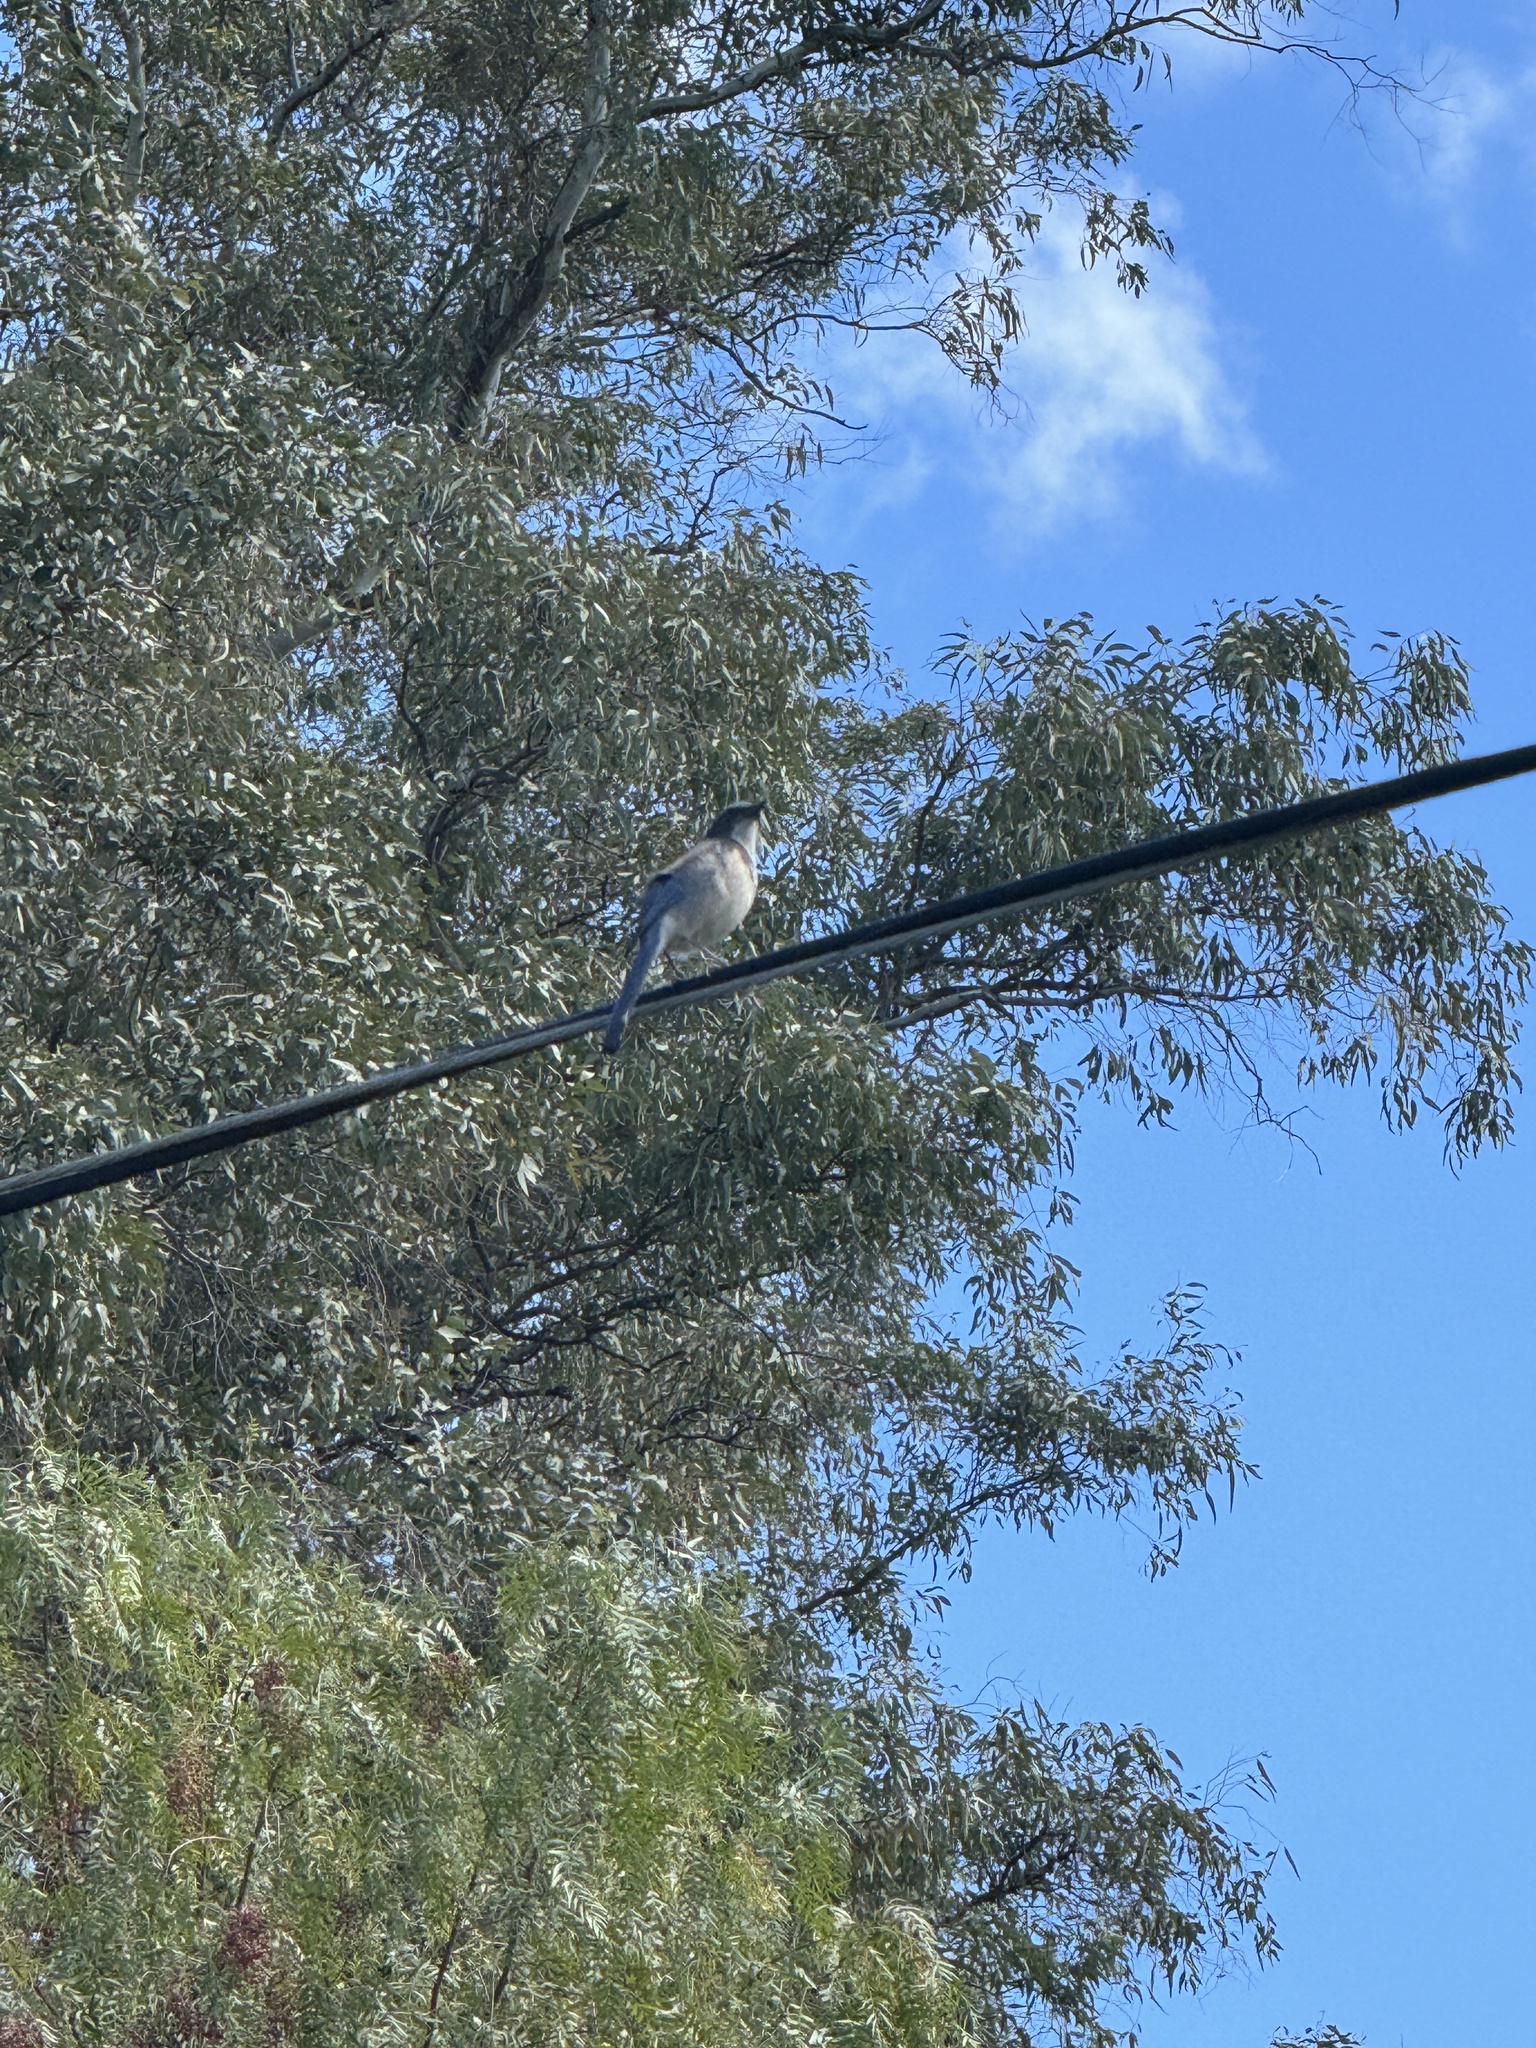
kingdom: Animalia
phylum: Chordata
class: Aves
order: Passeriformes
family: Corvidae
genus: Aphelocoma
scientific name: Aphelocoma californica
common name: California scrub-jay
